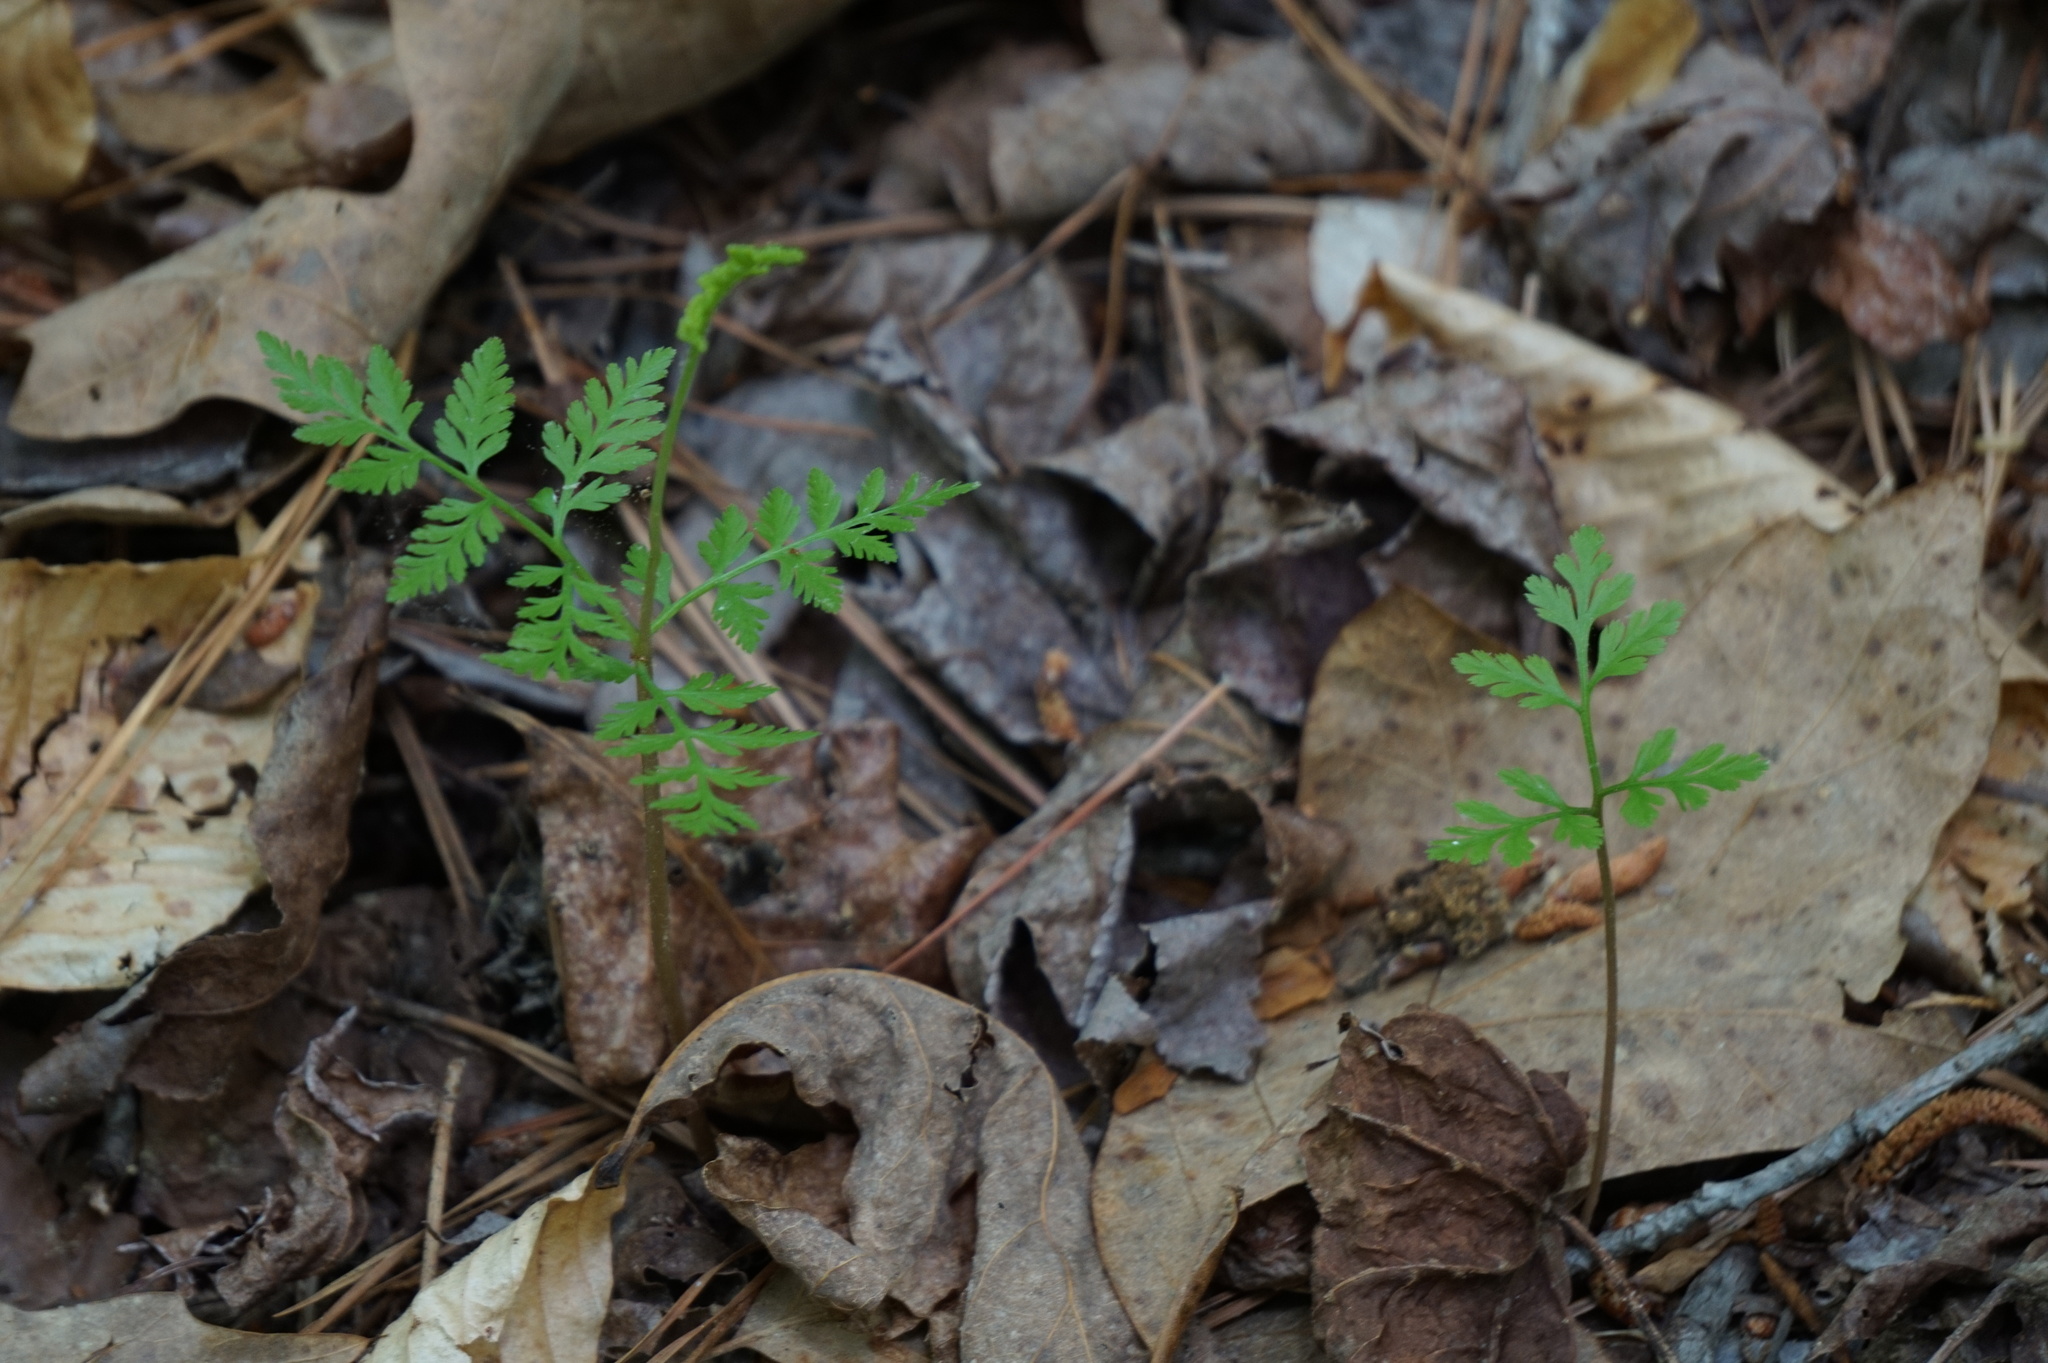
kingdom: Plantae
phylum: Tracheophyta
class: Polypodiopsida
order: Ophioglossales
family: Ophioglossaceae
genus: Botrypus
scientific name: Botrypus virginianus
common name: Common grapefern
